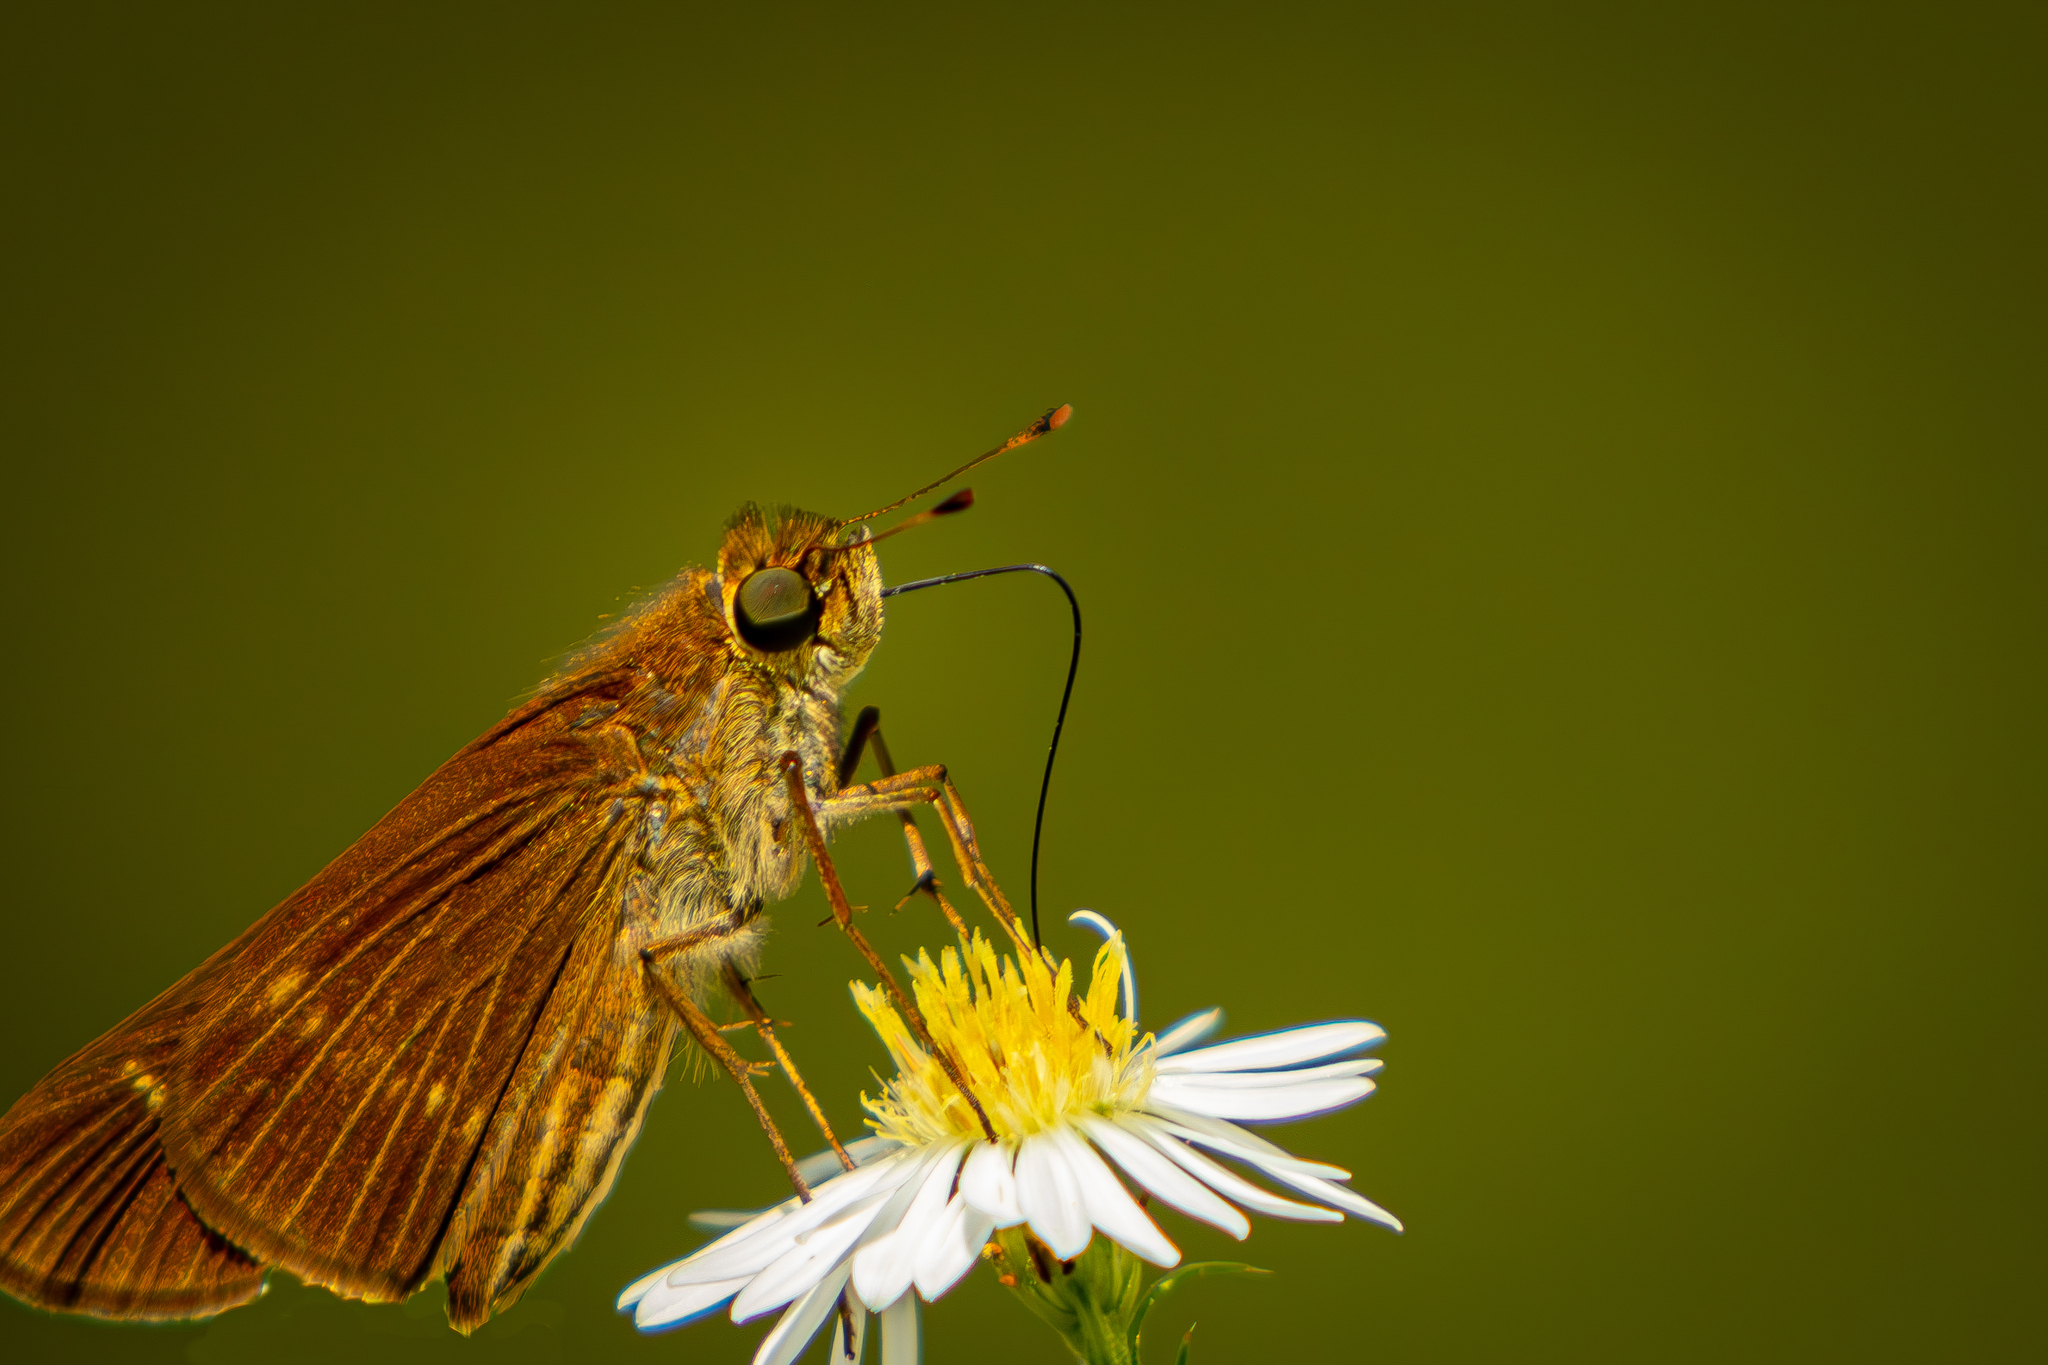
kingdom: Animalia
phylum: Arthropoda
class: Insecta
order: Lepidoptera
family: Hesperiidae
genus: Panoquina
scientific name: Panoquina ocola
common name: Ocola skipper
